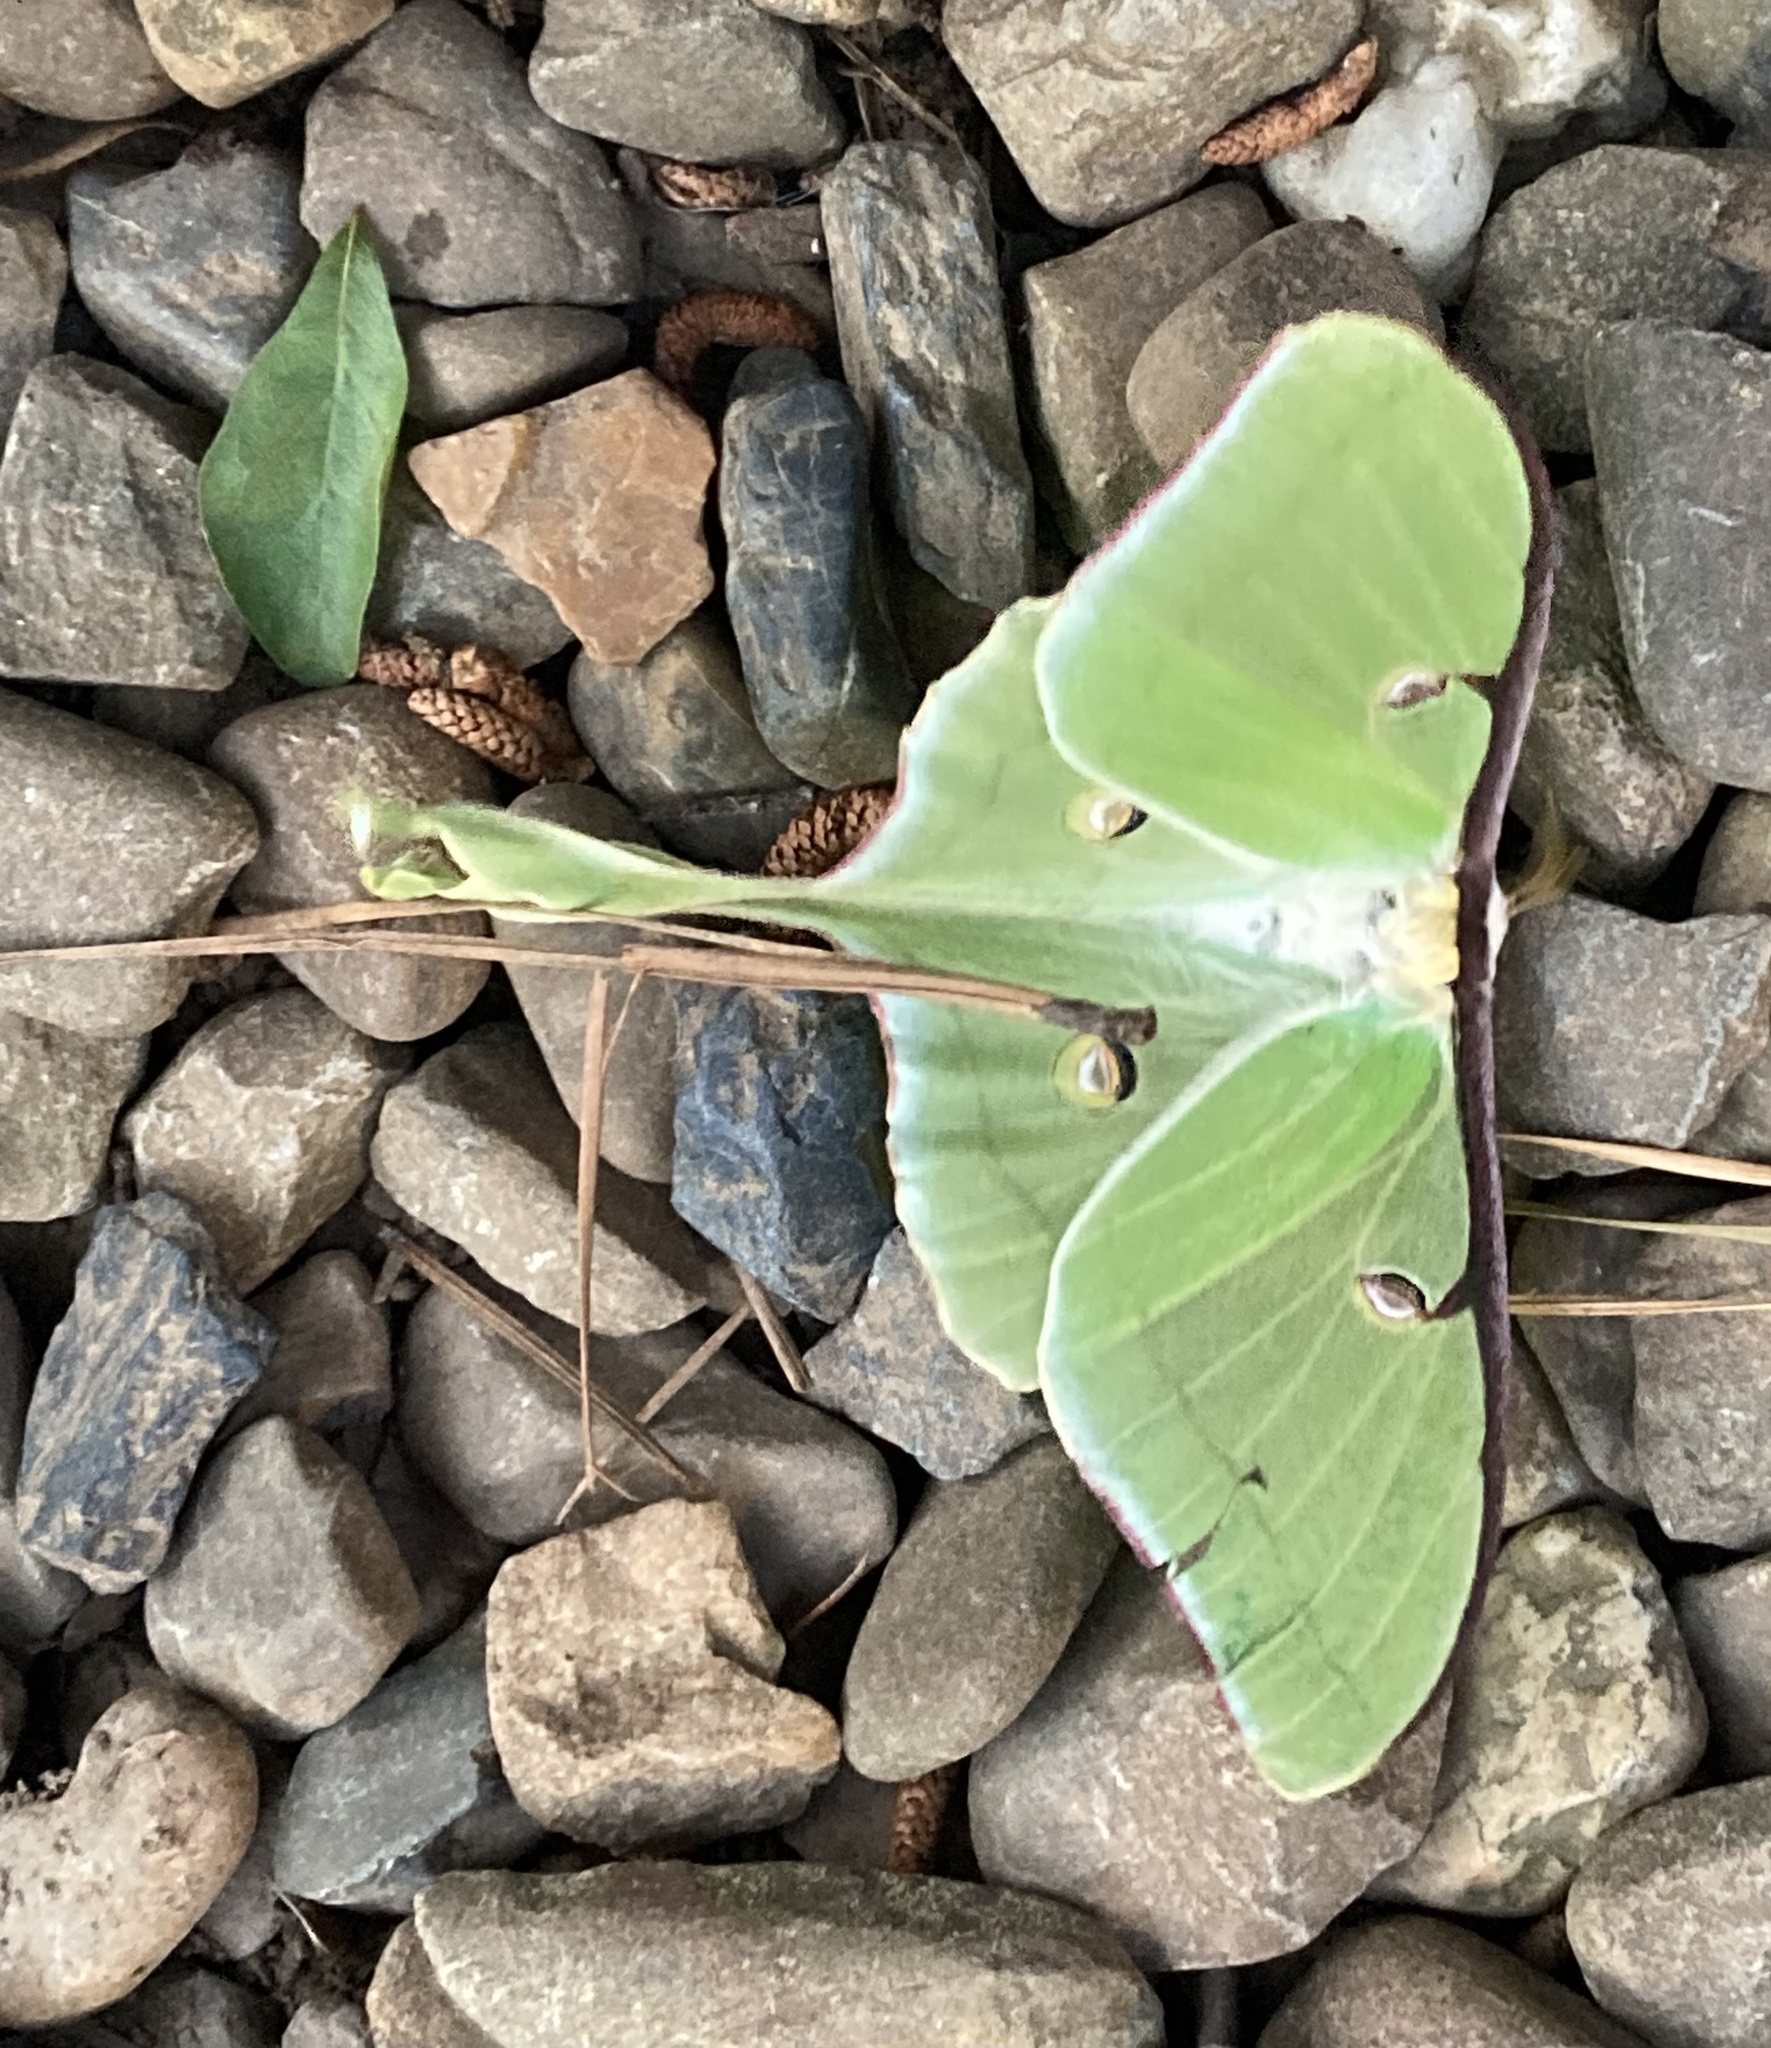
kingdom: Animalia
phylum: Arthropoda
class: Insecta
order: Lepidoptera
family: Saturniidae
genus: Actias
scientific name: Actias luna
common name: Luna moth
